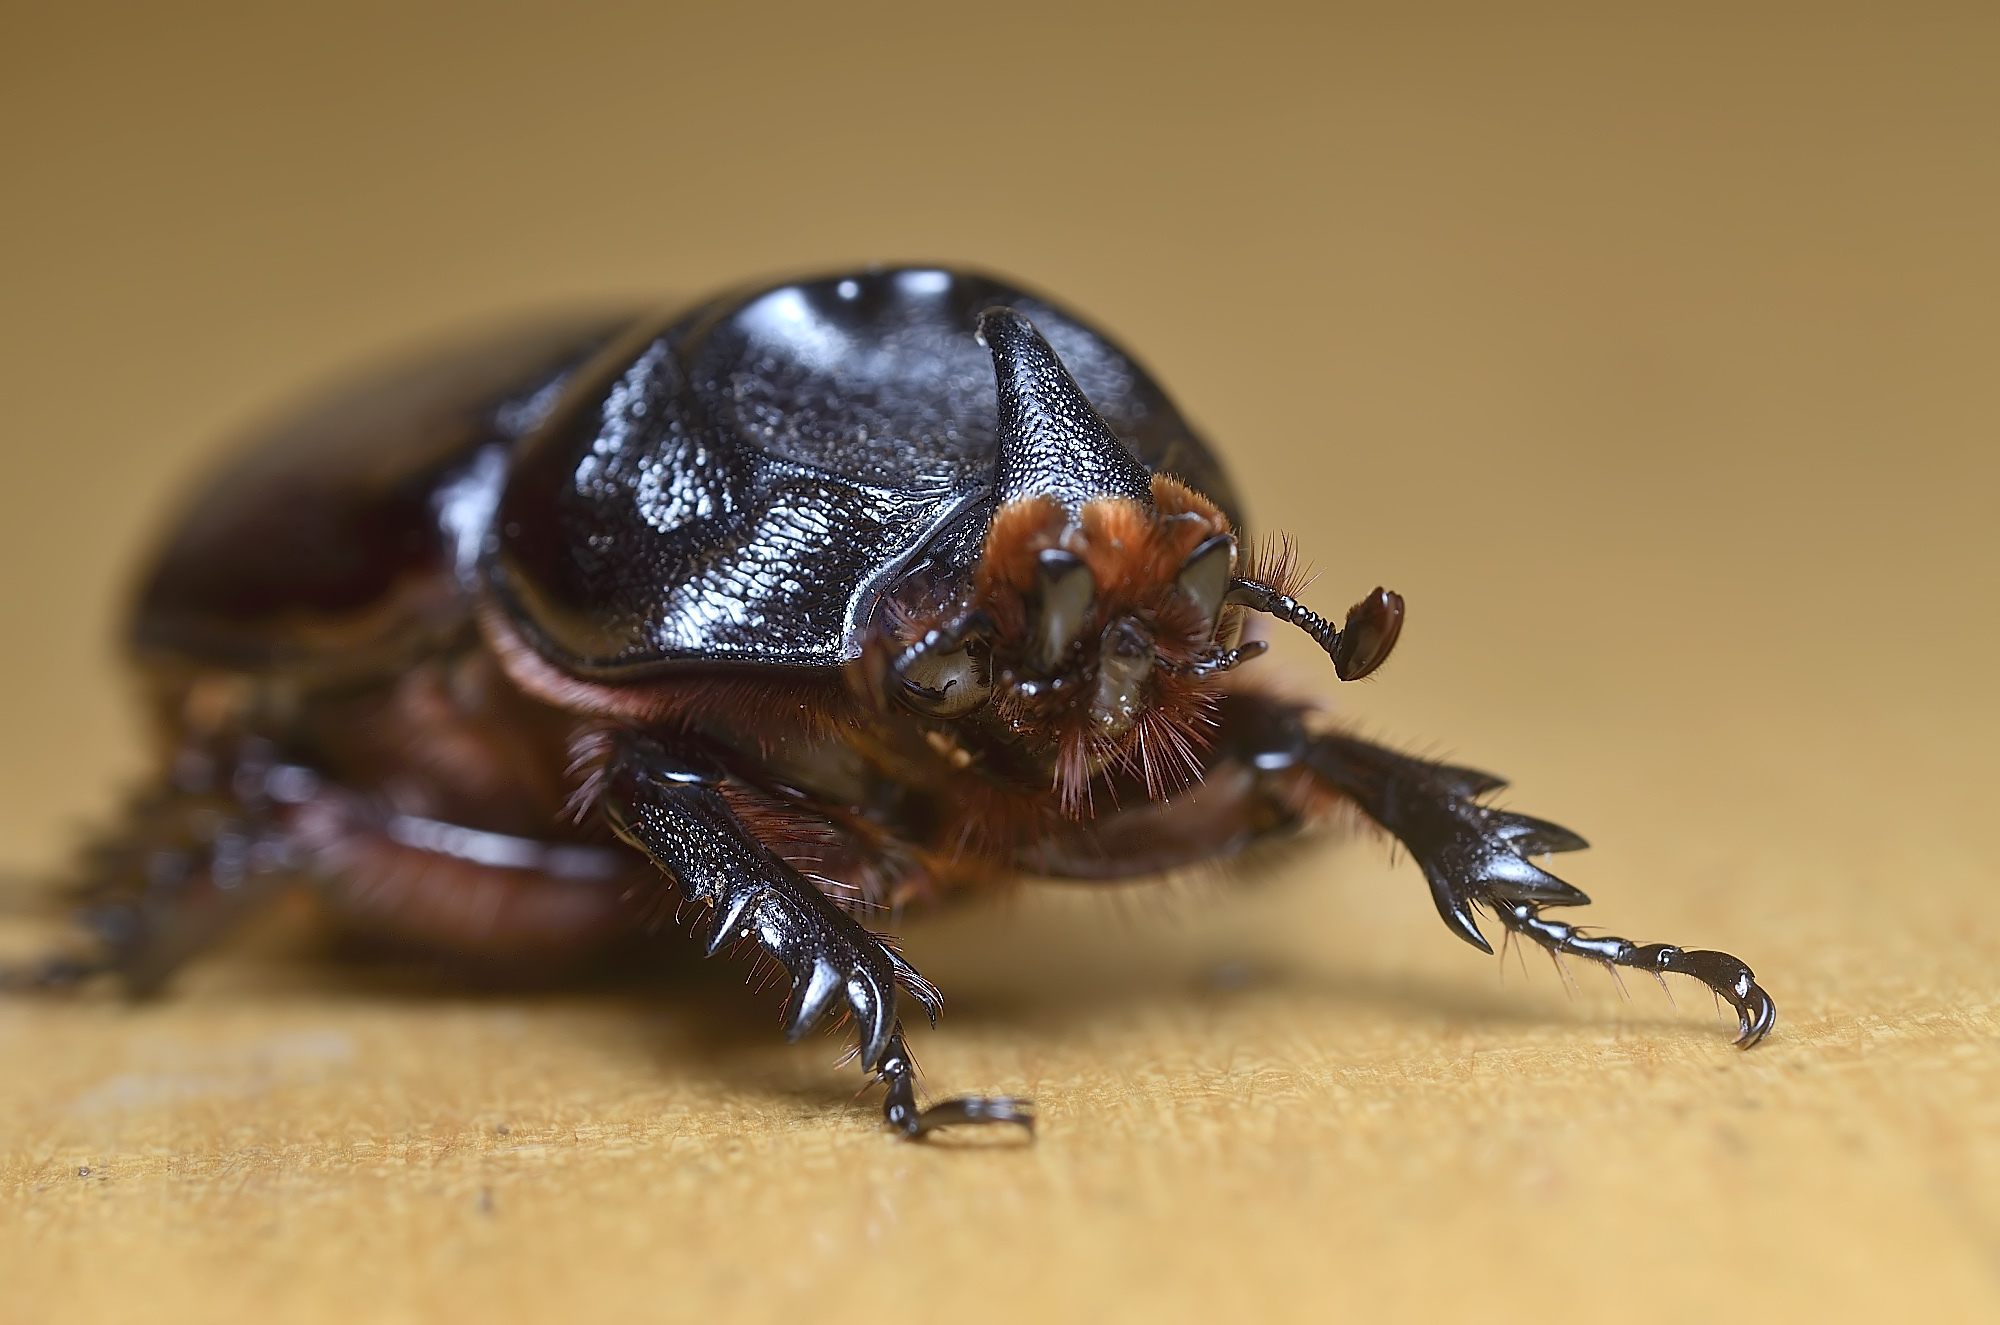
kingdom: Animalia
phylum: Arthropoda
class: Insecta
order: Coleoptera
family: Scarabaeidae
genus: Oryctes
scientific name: Oryctes rhinoceros
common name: Coconut rhinoceros beetle
